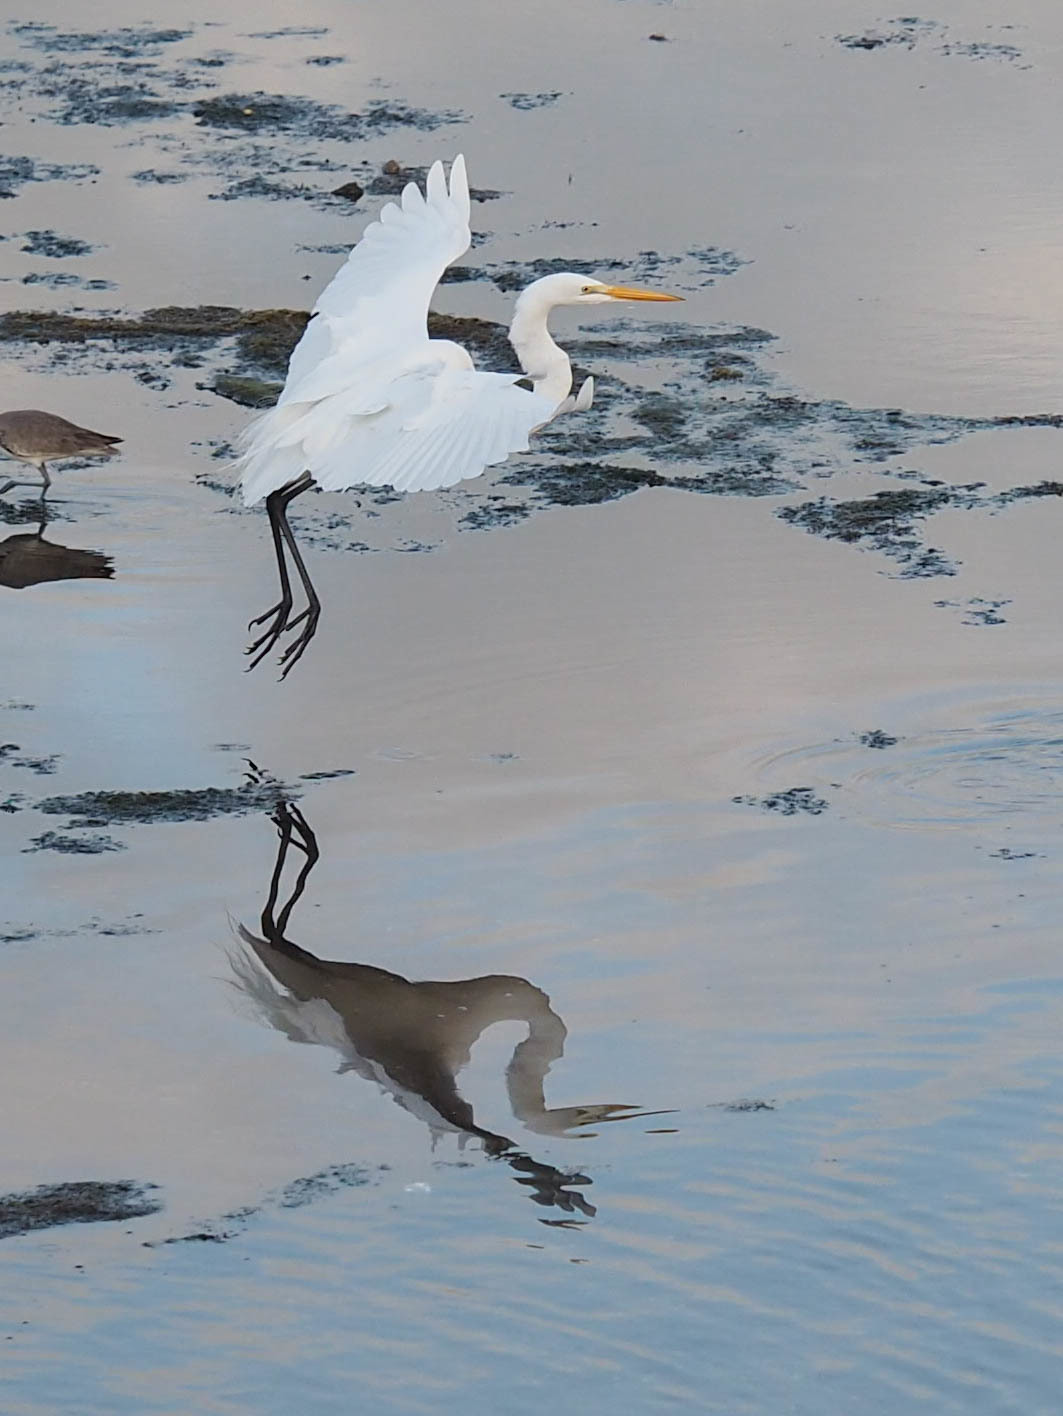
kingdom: Animalia
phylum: Chordata
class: Aves
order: Pelecaniformes
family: Ardeidae
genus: Ardea
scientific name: Ardea alba
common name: Great egret
